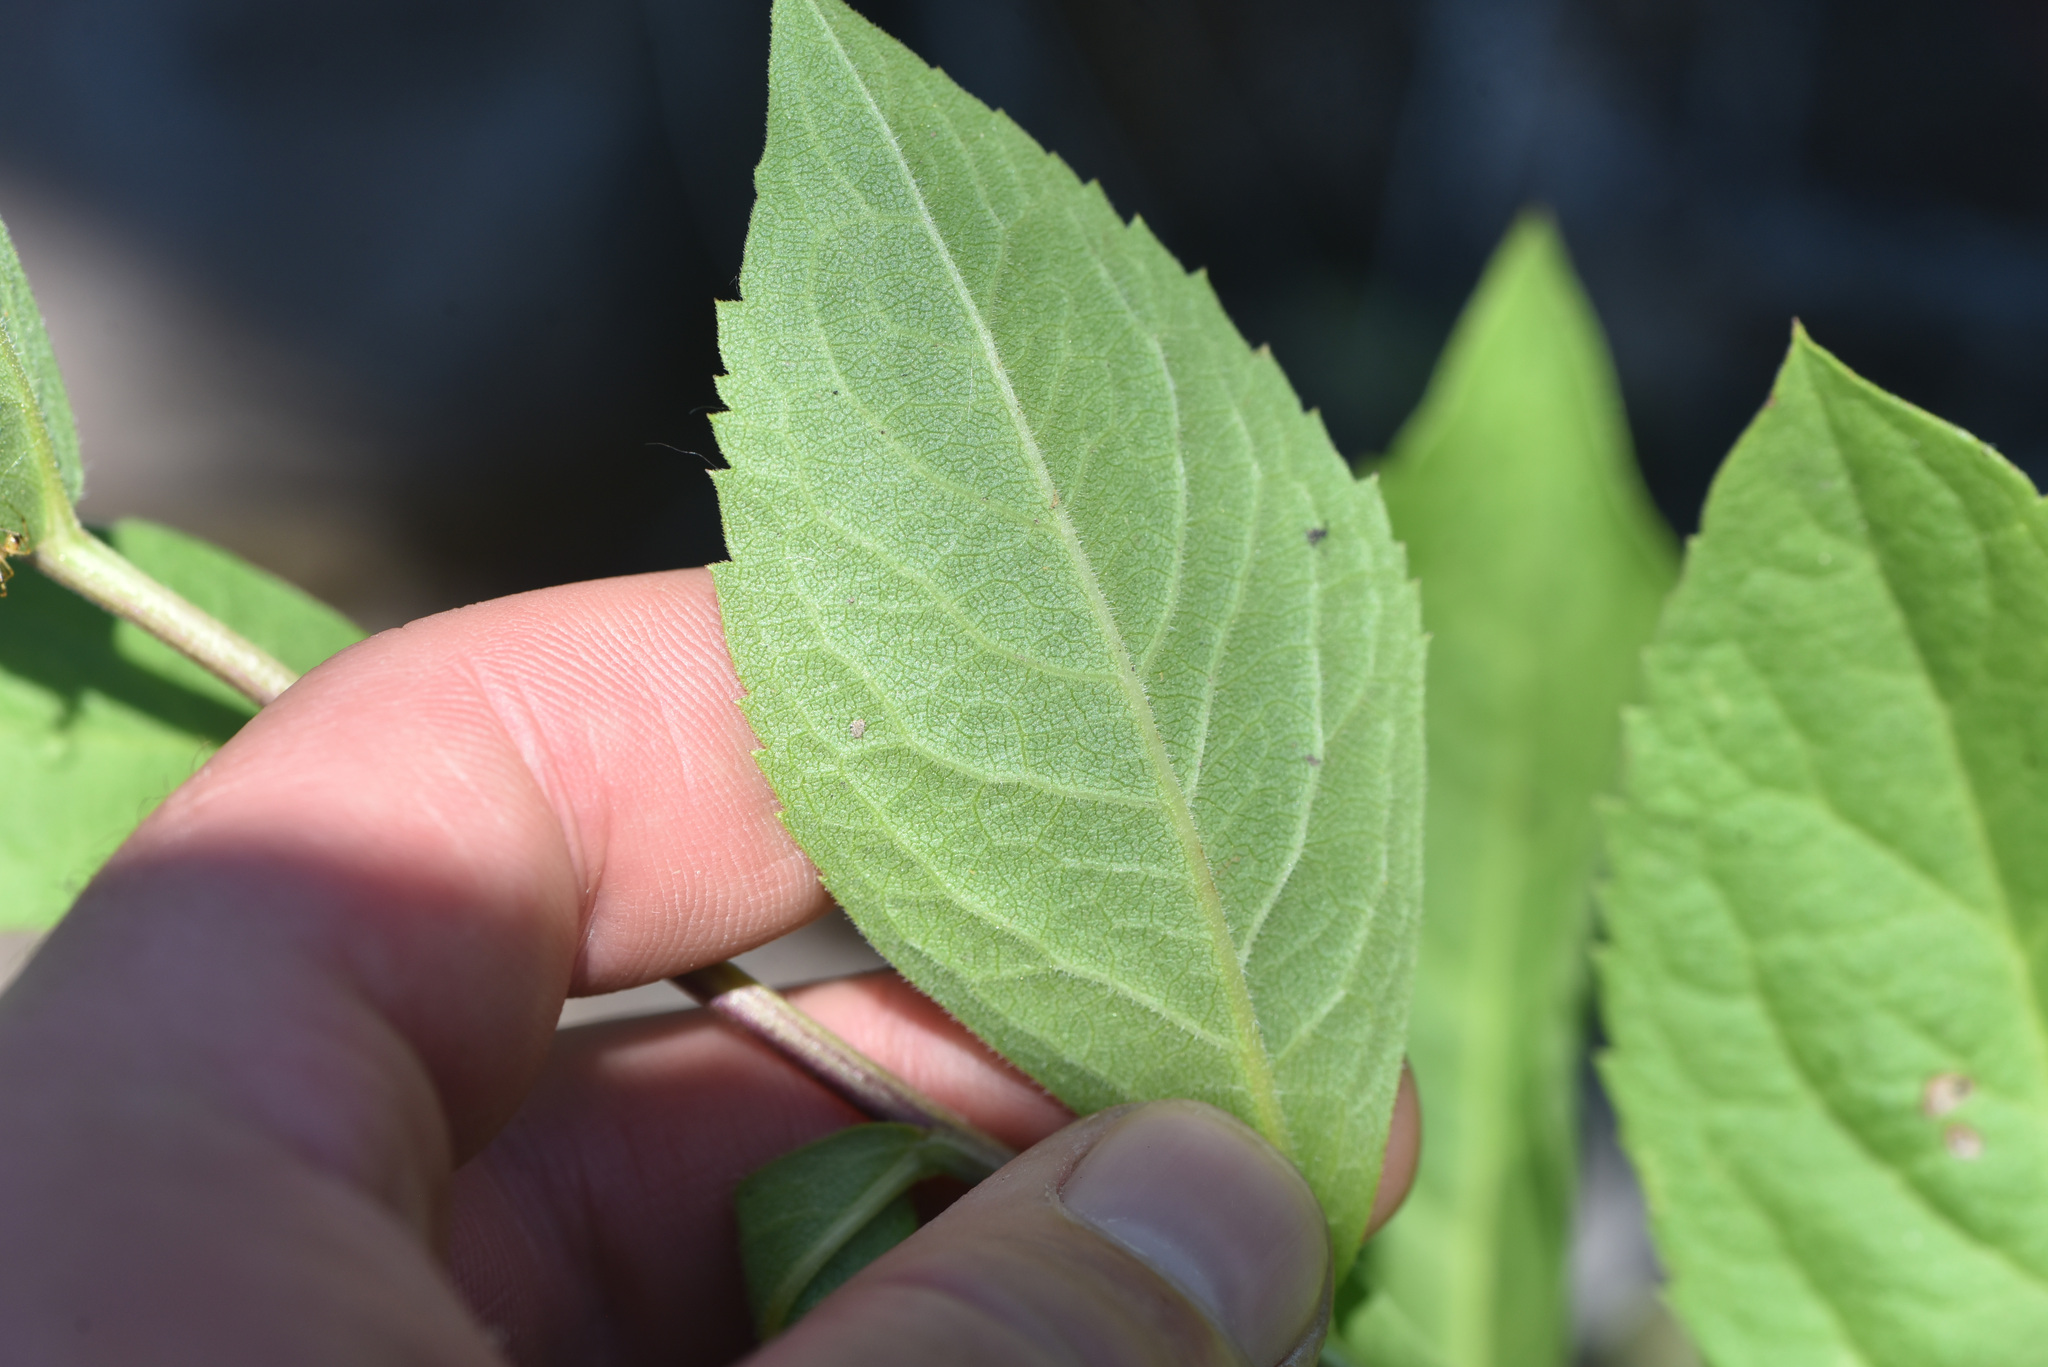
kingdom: Plantae
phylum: Tracheophyta
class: Magnoliopsida
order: Asterales
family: Asteraceae
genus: Eurybia
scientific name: Eurybia conspicua
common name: Showy aster
